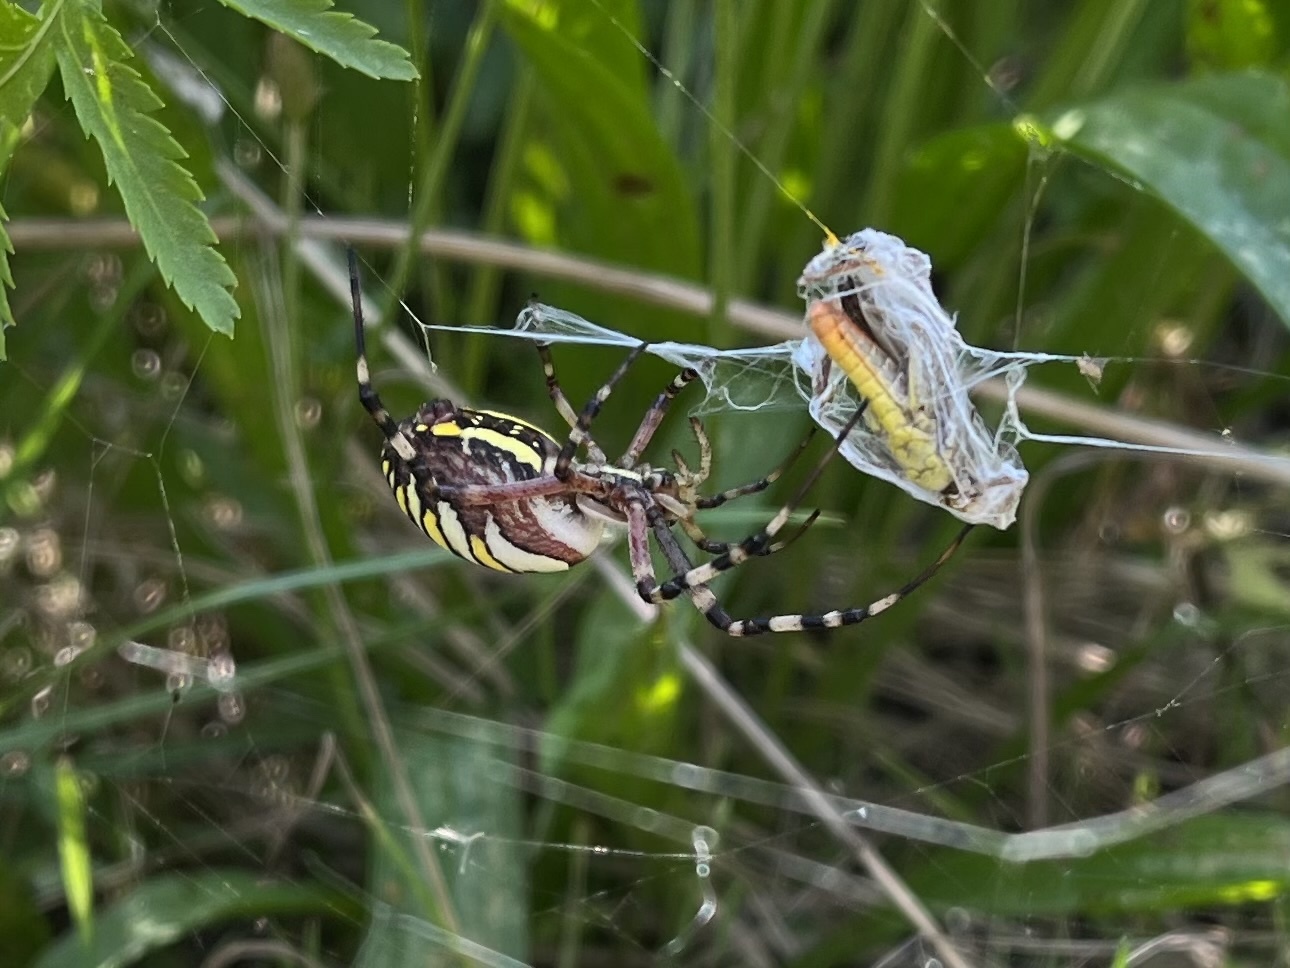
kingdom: Animalia
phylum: Arthropoda
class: Arachnida
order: Araneae
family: Araneidae
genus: Argiope
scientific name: Argiope bruennichi
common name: Wasp spider
